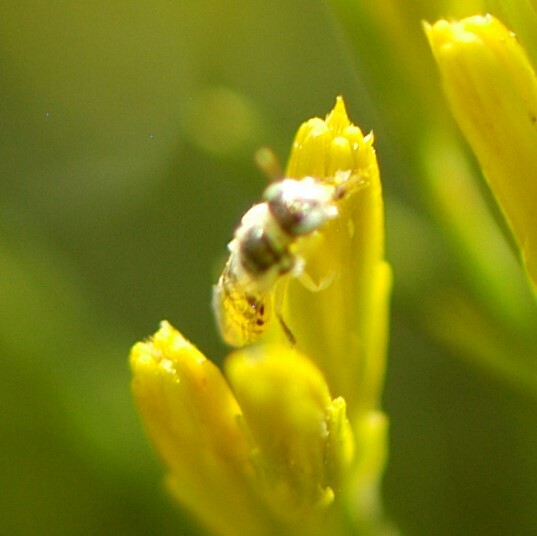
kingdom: Animalia
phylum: Arthropoda
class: Insecta
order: Hymenoptera
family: Andrenidae
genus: Perdita
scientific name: Perdita
